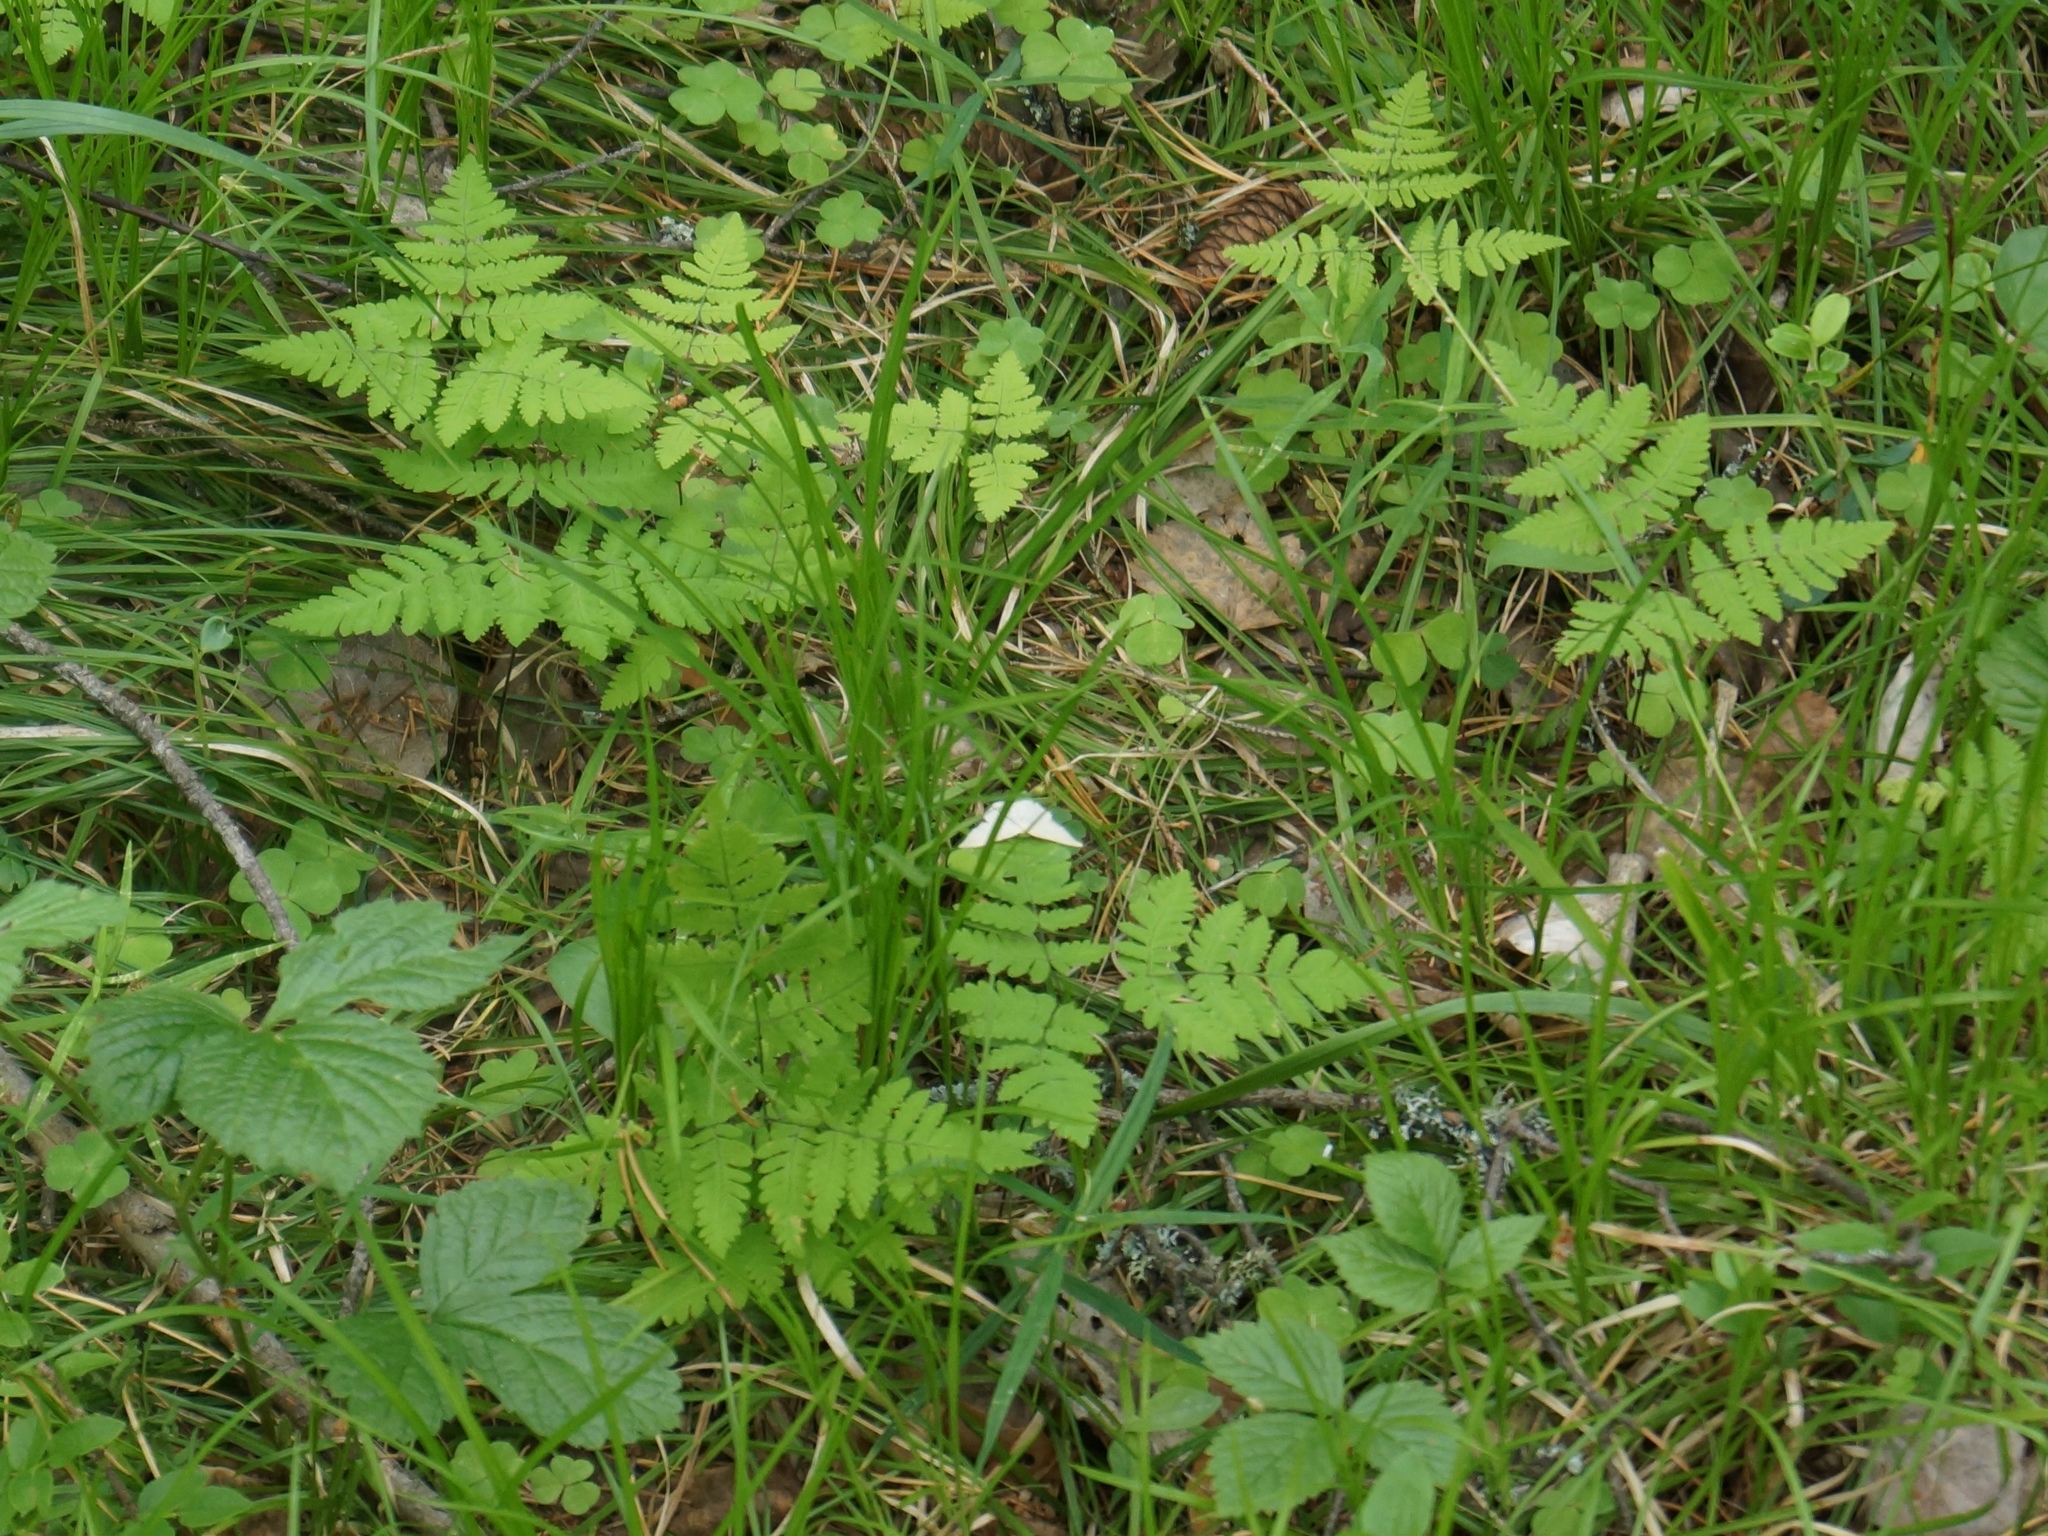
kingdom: Plantae
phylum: Tracheophyta
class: Polypodiopsida
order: Polypodiales
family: Cystopteridaceae
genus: Gymnocarpium
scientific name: Gymnocarpium dryopteris
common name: Oak fern
